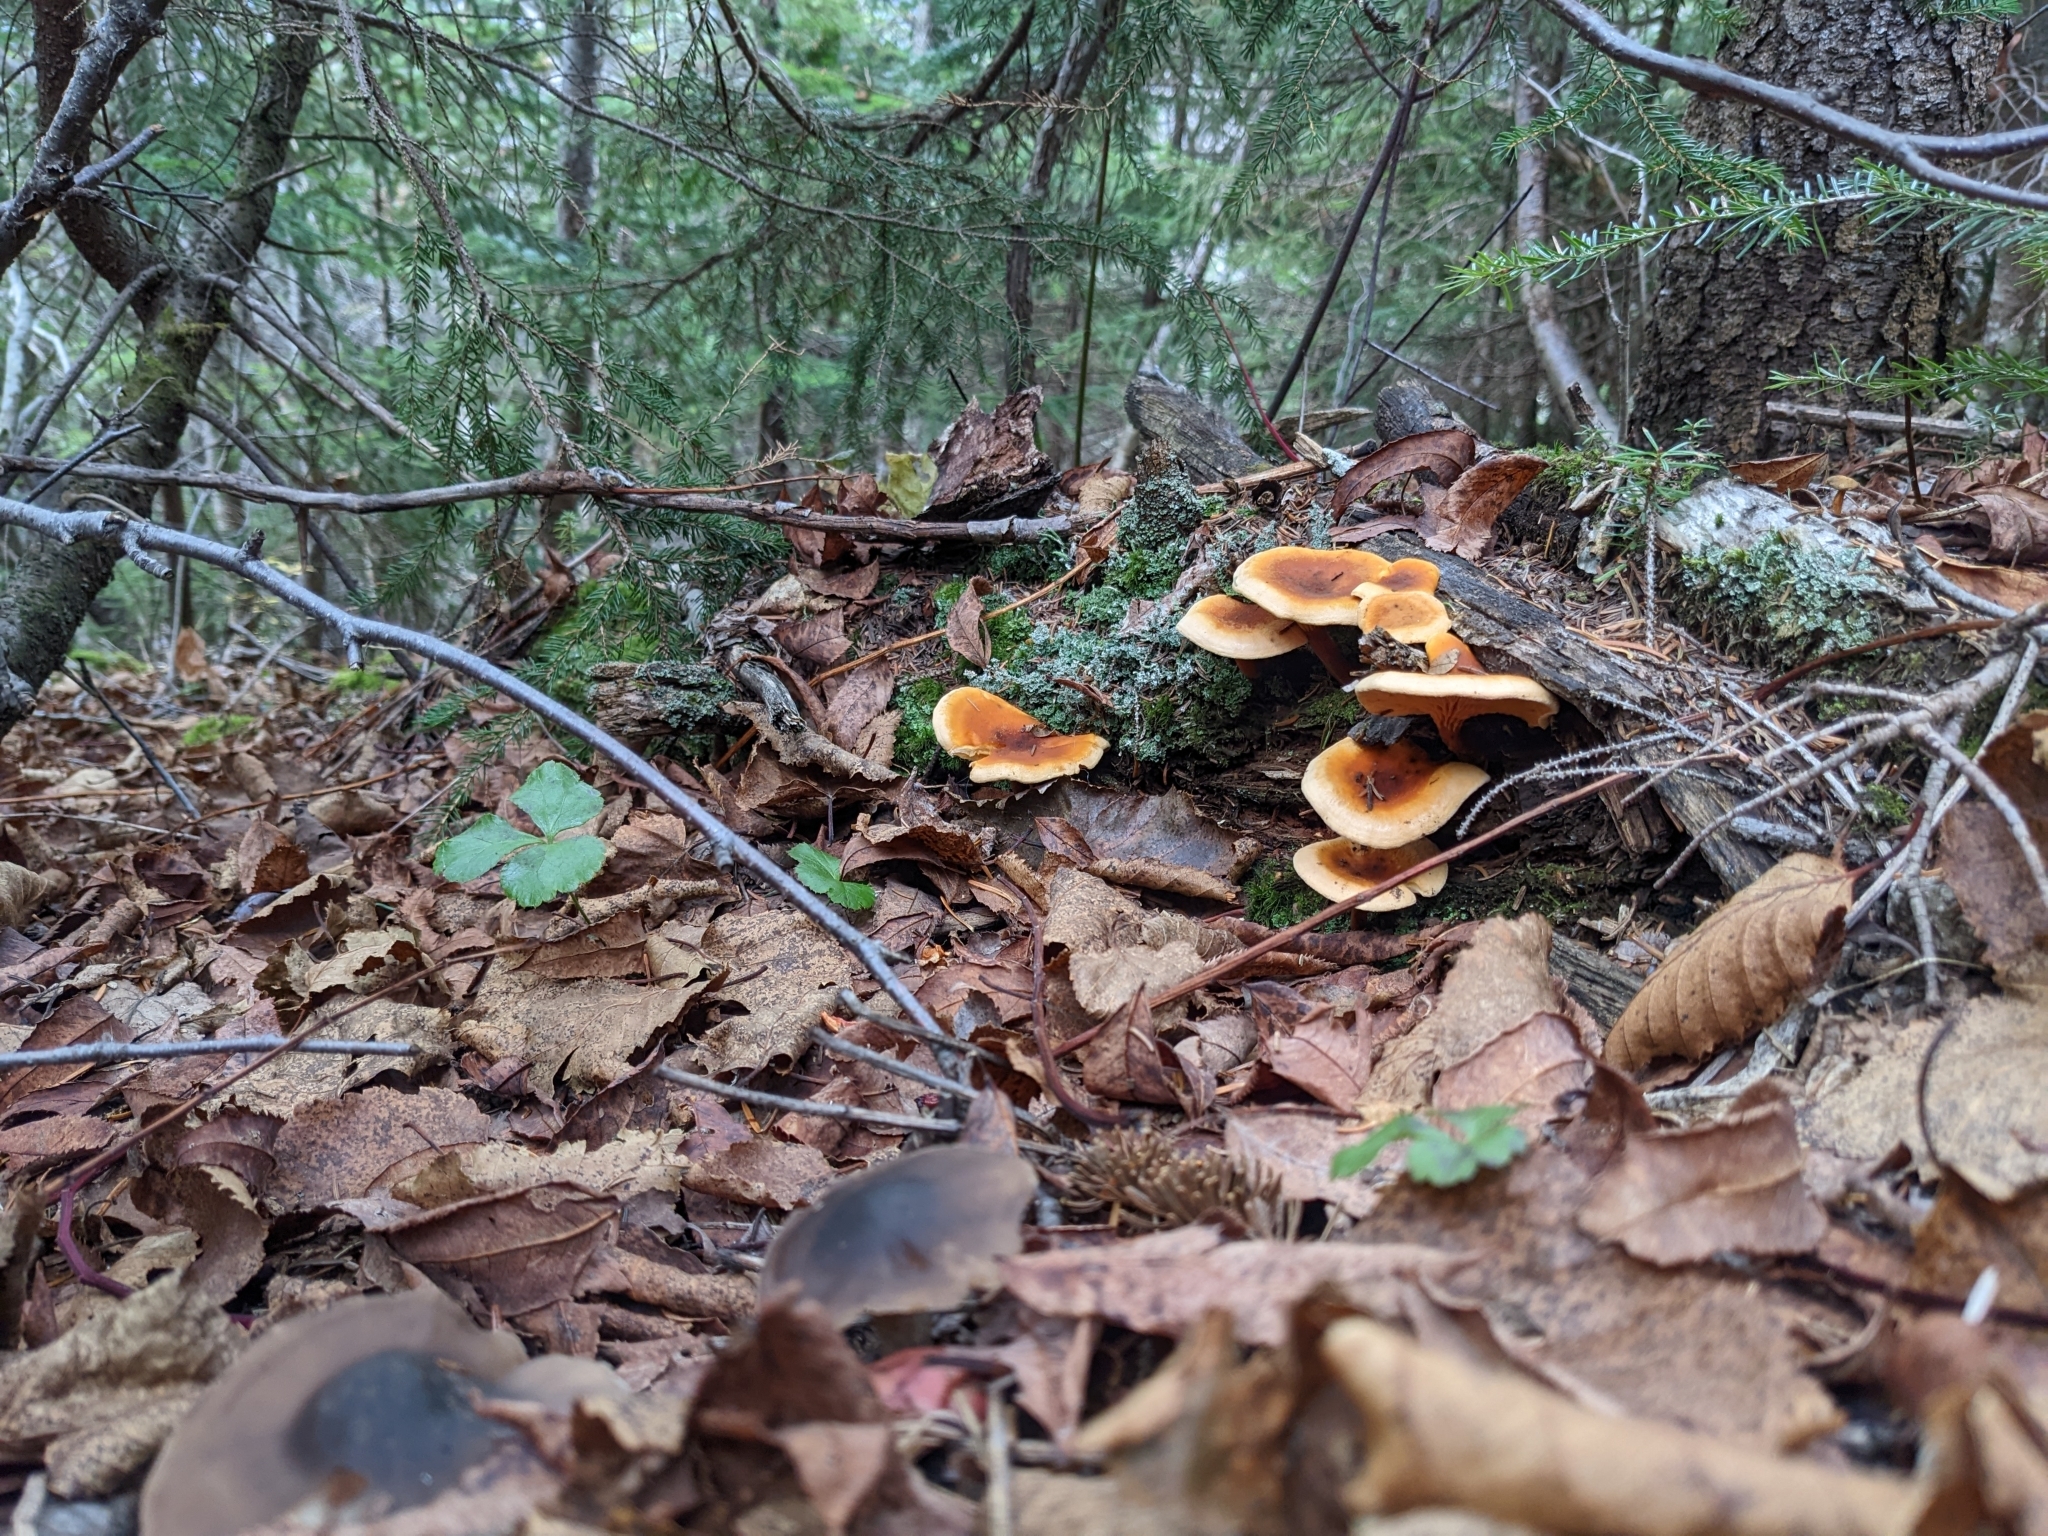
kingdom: Fungi
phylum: Basidiomycota
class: Agaricomycetes
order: Boletales
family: Hygrophoropsidaceae
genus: Hygrophoropsis
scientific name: Hygrophoropsis aurantiaca
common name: False chanterelle
